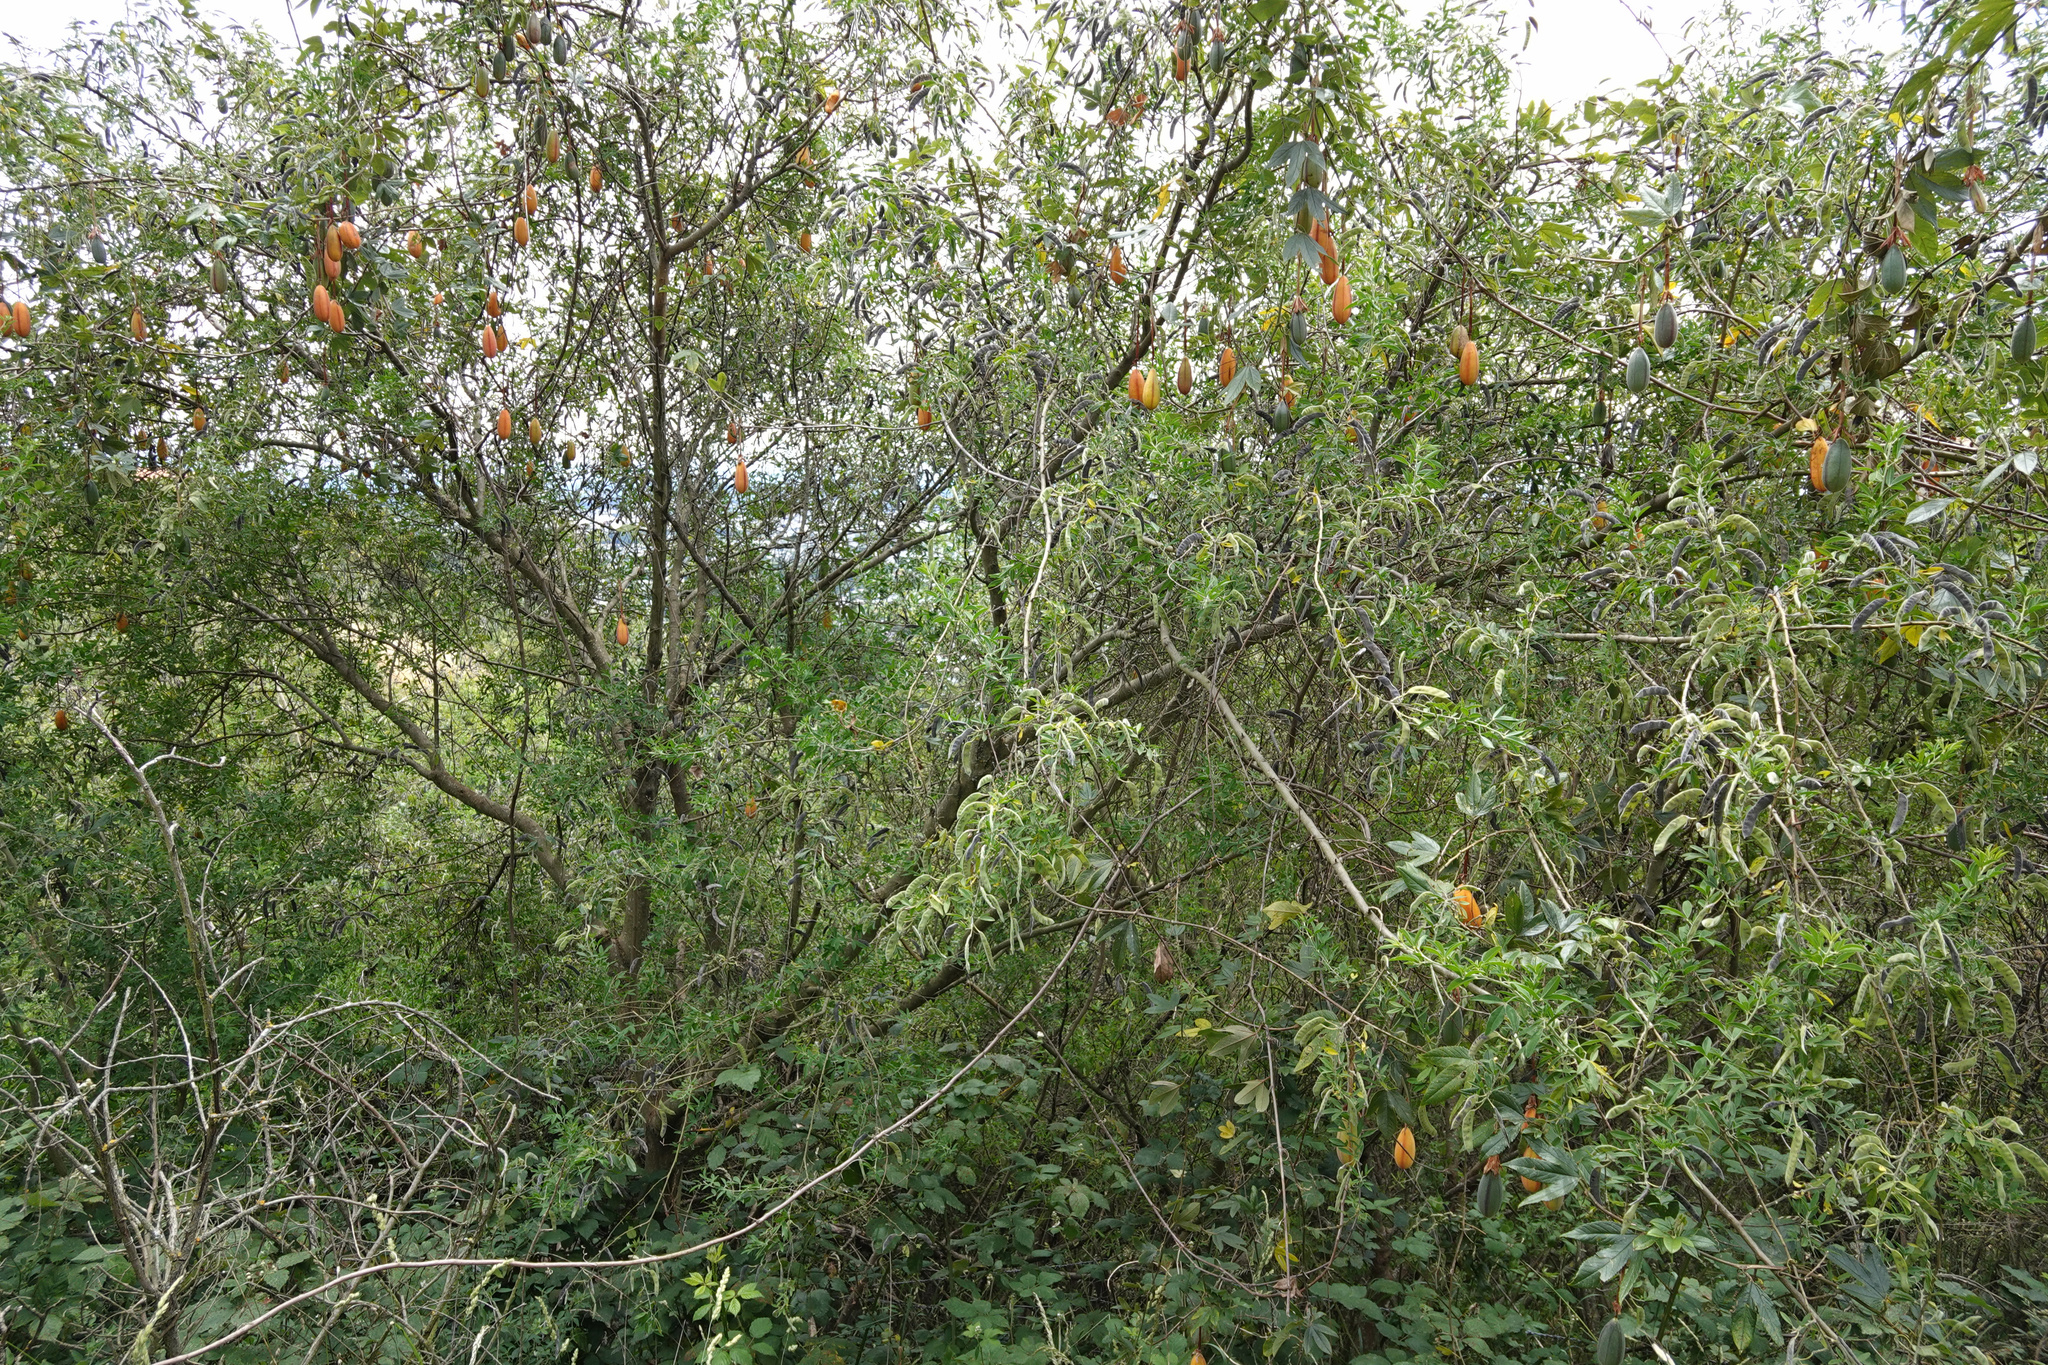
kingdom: Plantae
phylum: Tracheophyta
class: Magnoliopsida
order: Malpighiales
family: Passifloraceae
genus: Passiflora
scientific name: Passiflora tripartita
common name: Banana poka
